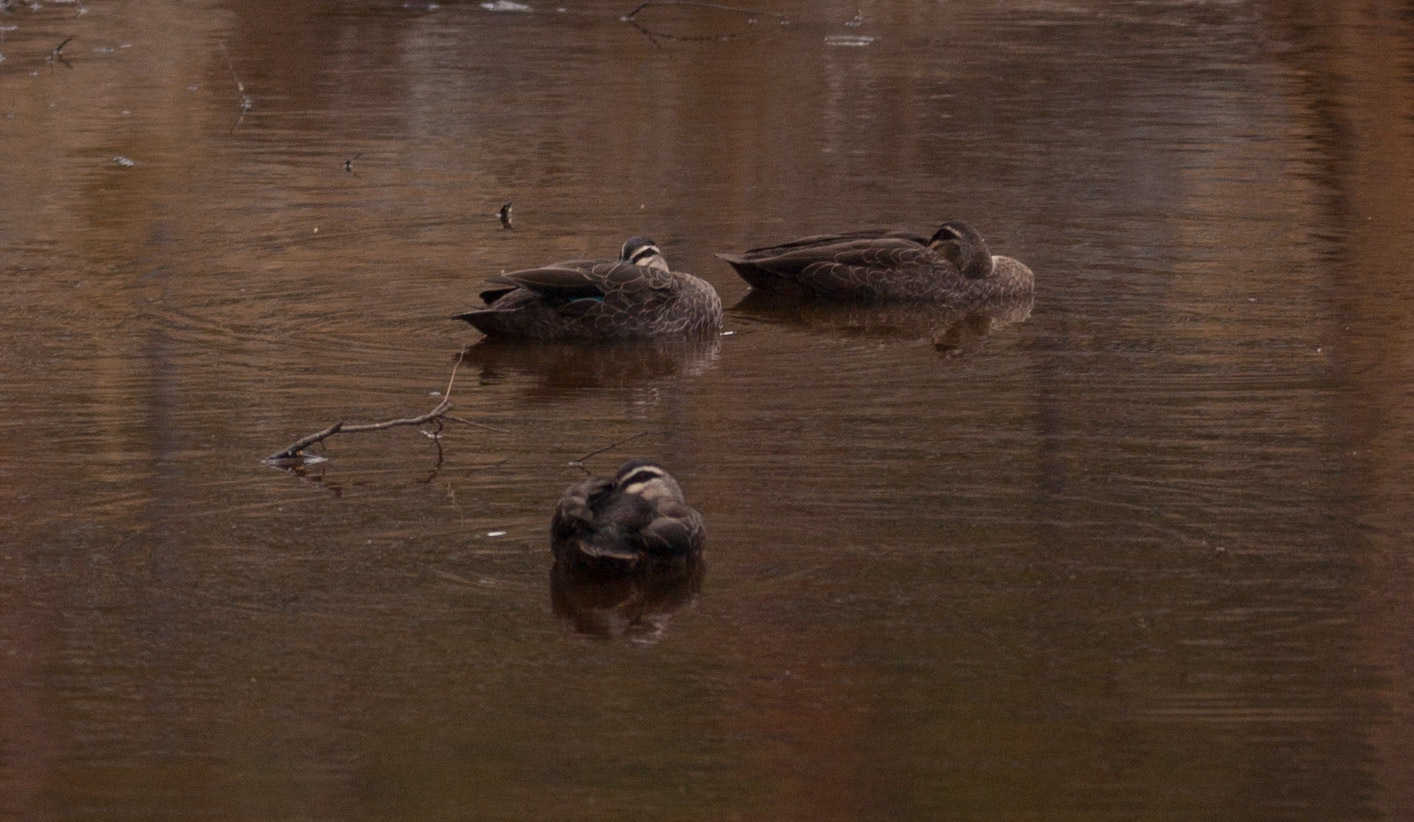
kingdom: Animalia
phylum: Chordata
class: Aves
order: Anseriformes
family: Anatidae
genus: Anas
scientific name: Anas superciliosa
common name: Pacific black duck
